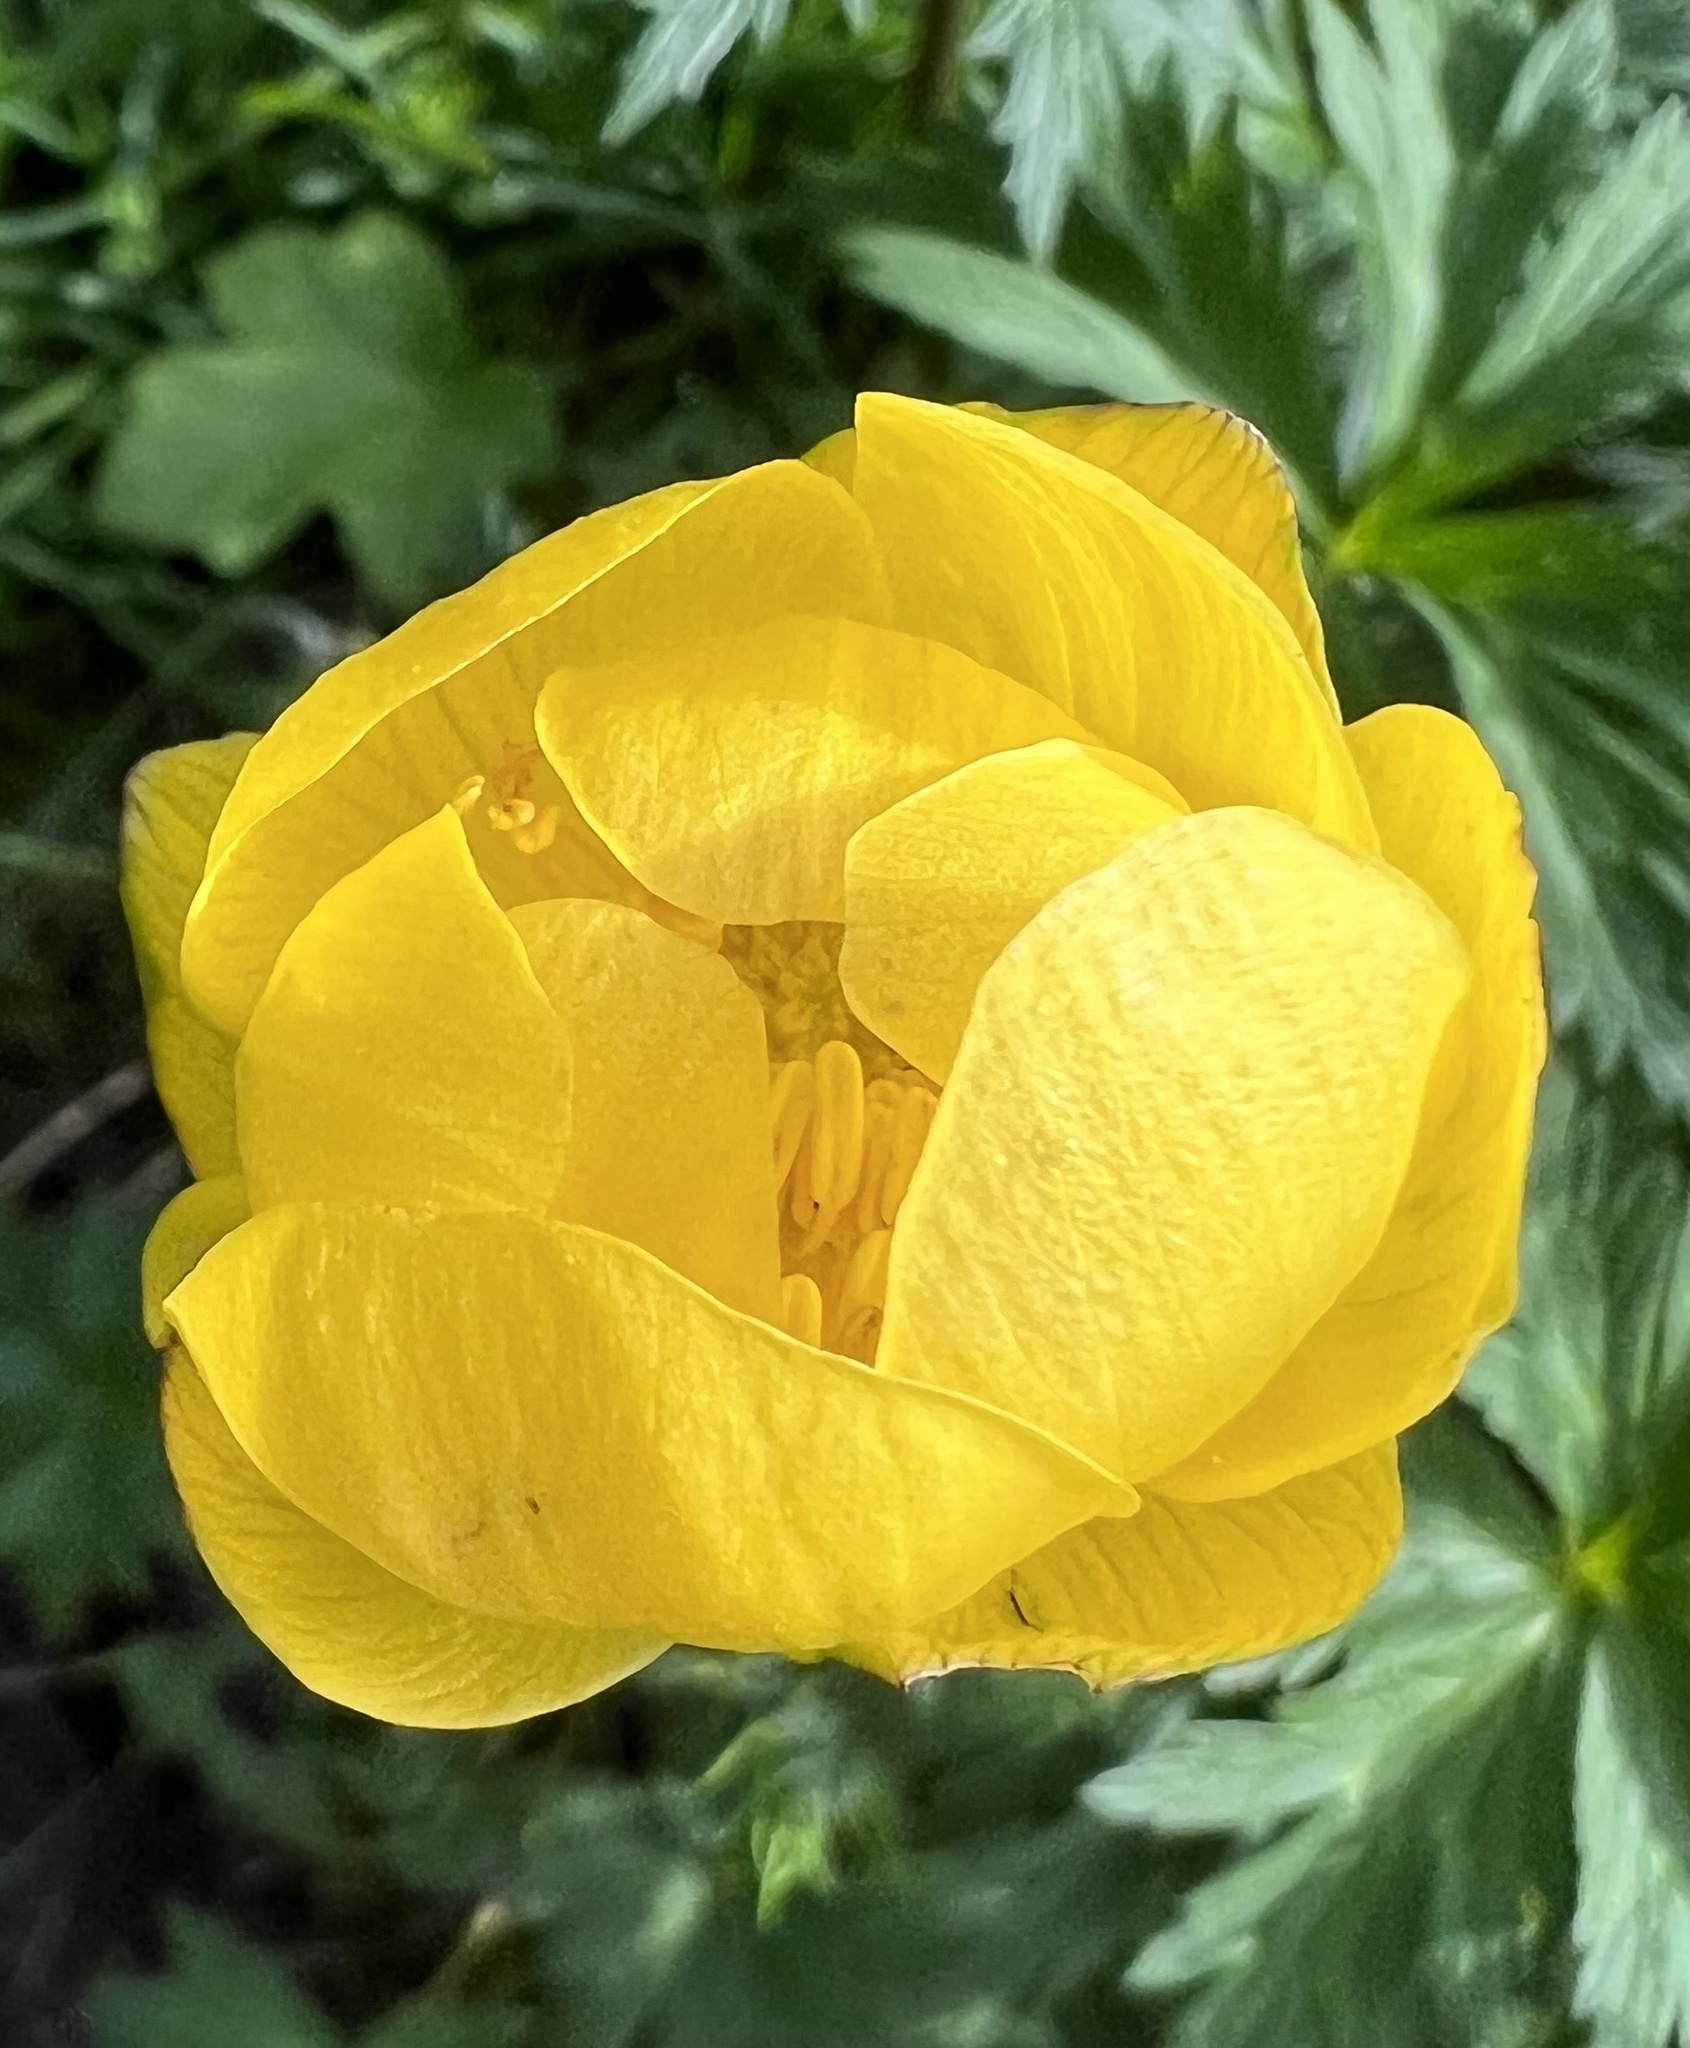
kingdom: Plantae
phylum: Tracheophyta
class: Magnoliopsida
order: Ranunculales
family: Ranunculaceae
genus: Trollius
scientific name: Trollius europaeus
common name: European globeflower
